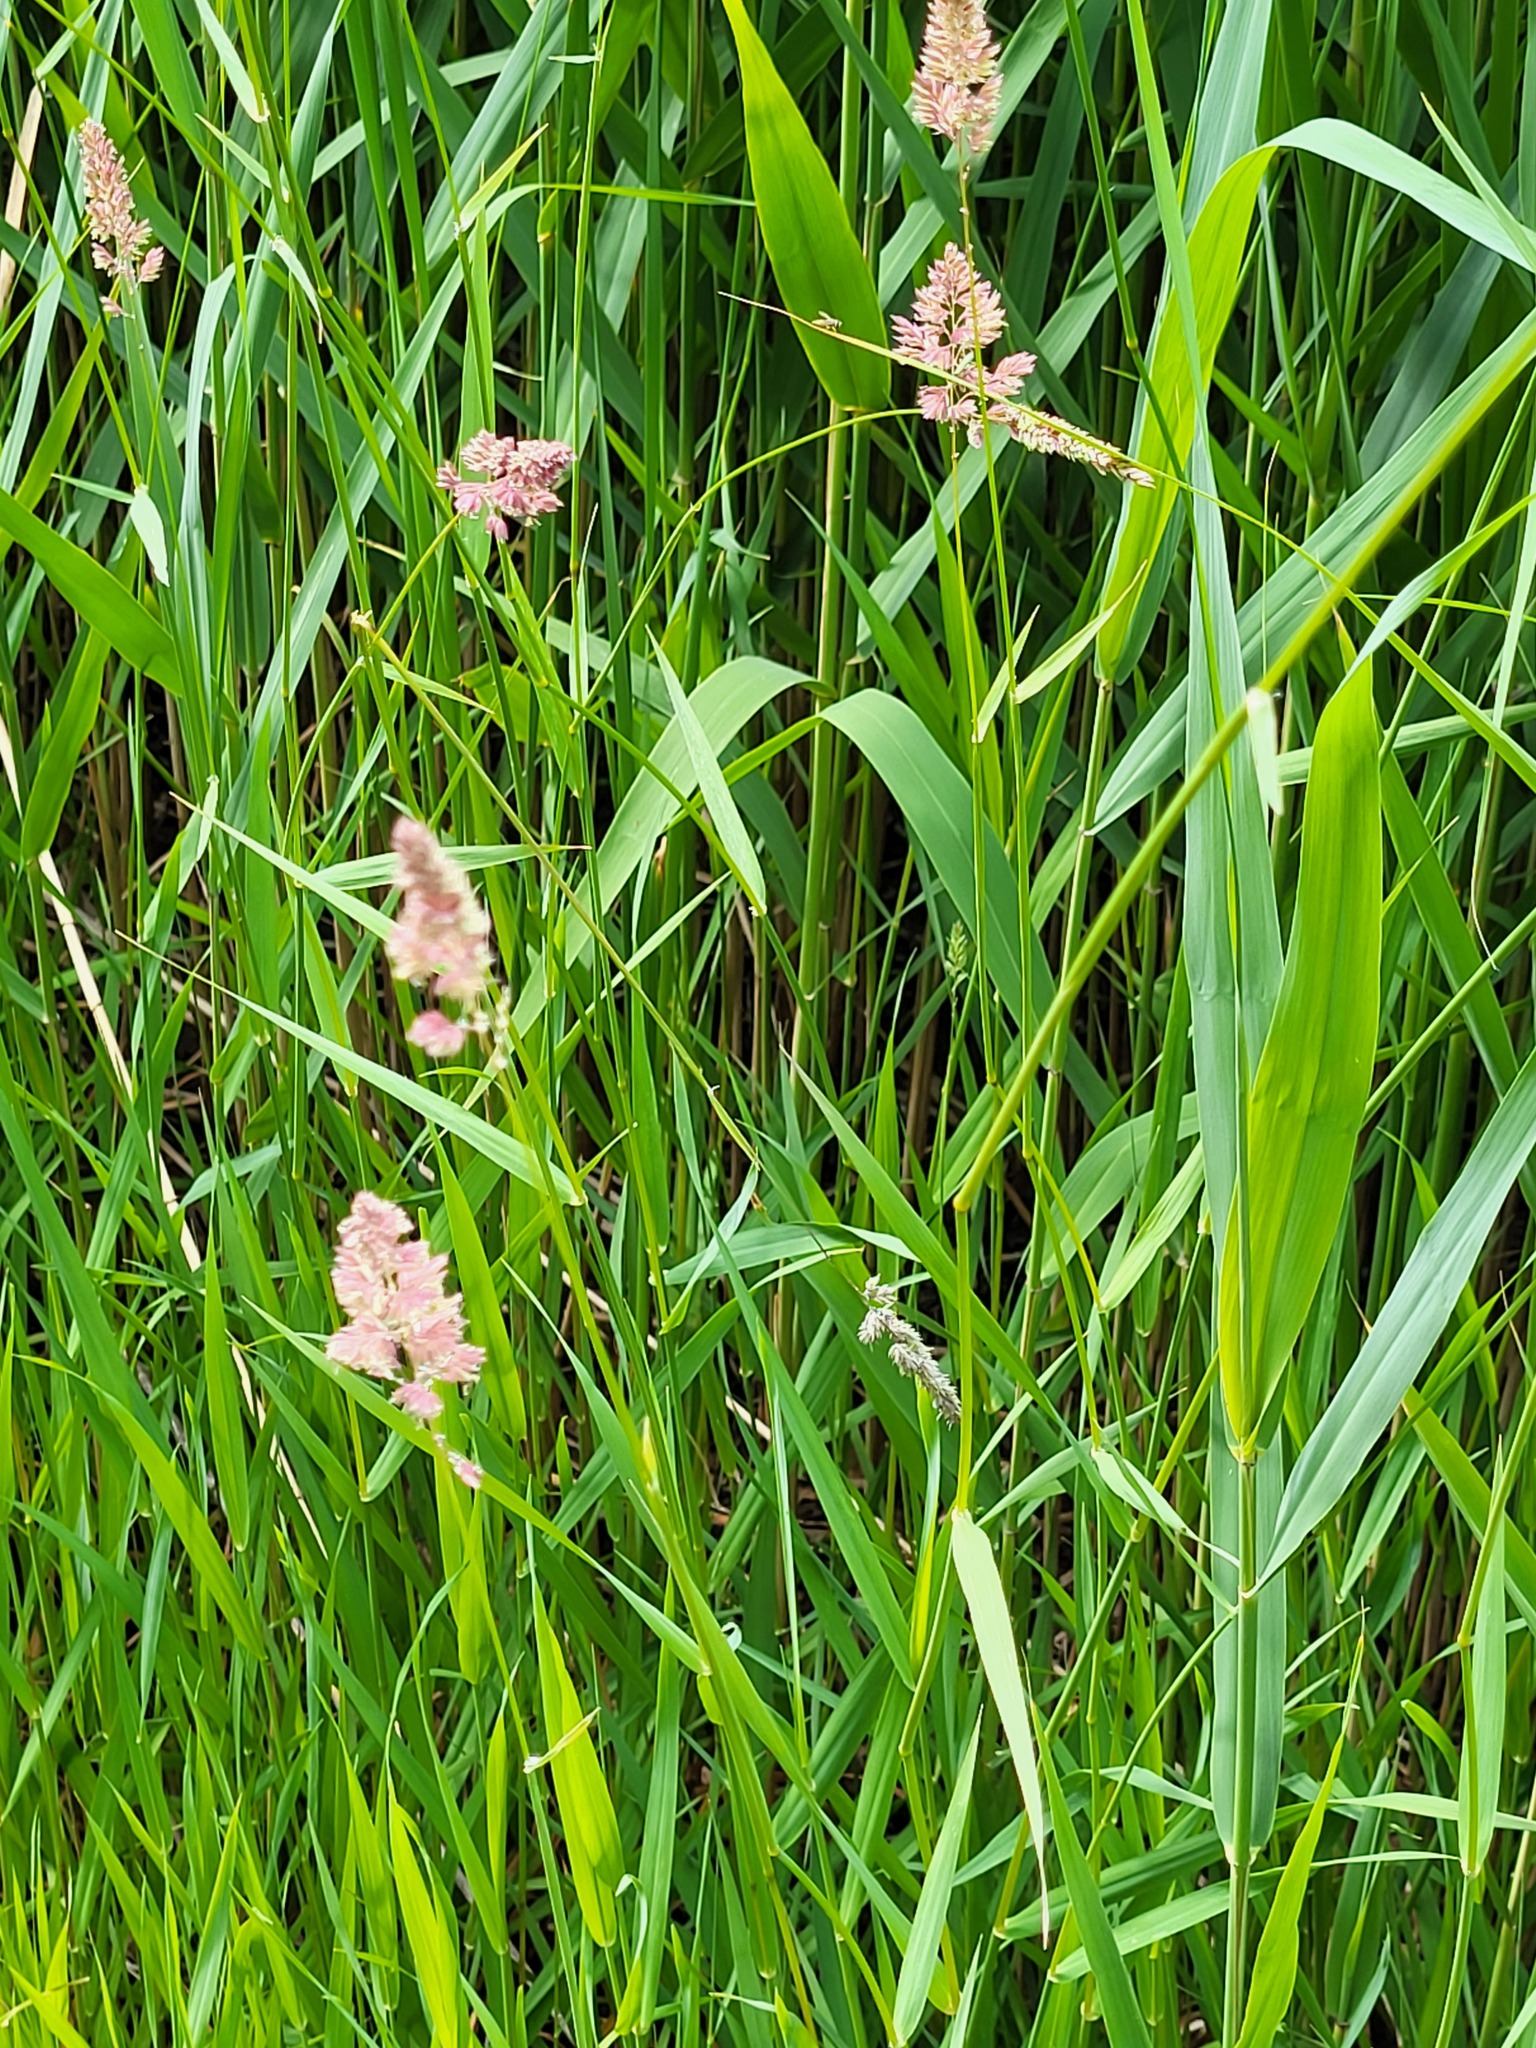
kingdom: Plantae
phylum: Tracheophyta
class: Liliopsida
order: Poales
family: Poaceae
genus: Phalaris
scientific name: Phalaris arundinacea
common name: Reed canary-grass
